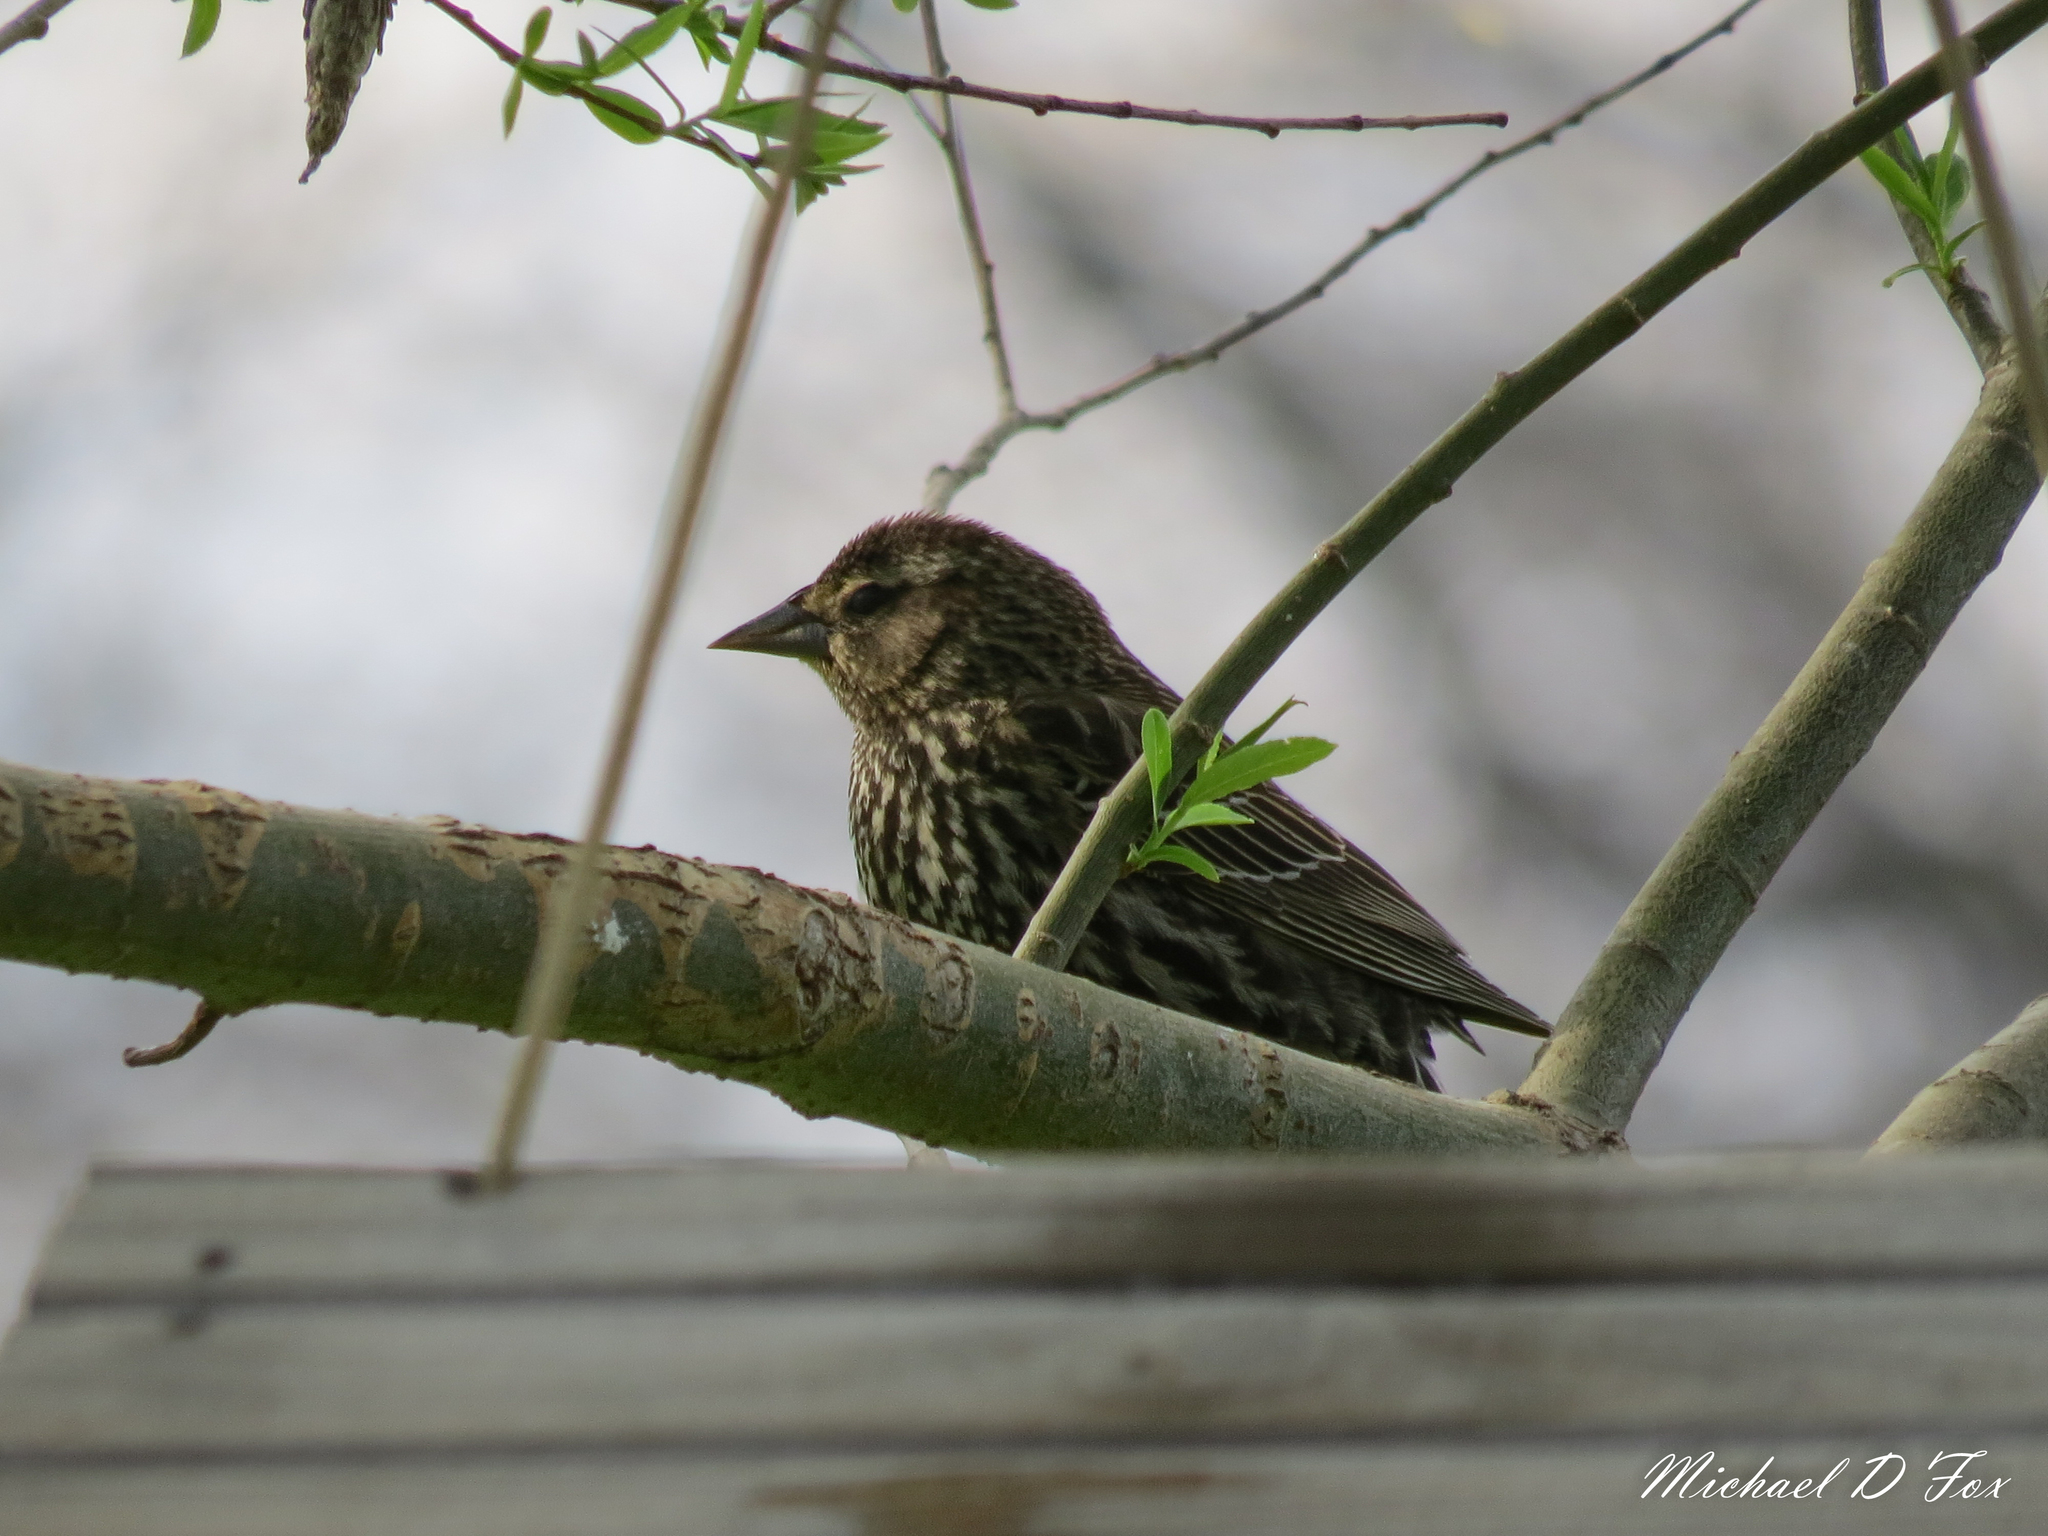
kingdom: Animalia
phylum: Chordata
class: Aves
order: Passeriformes
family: Icteridae
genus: Agelaius
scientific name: Agelaius phoeniceus
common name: Red-winged blackbird
